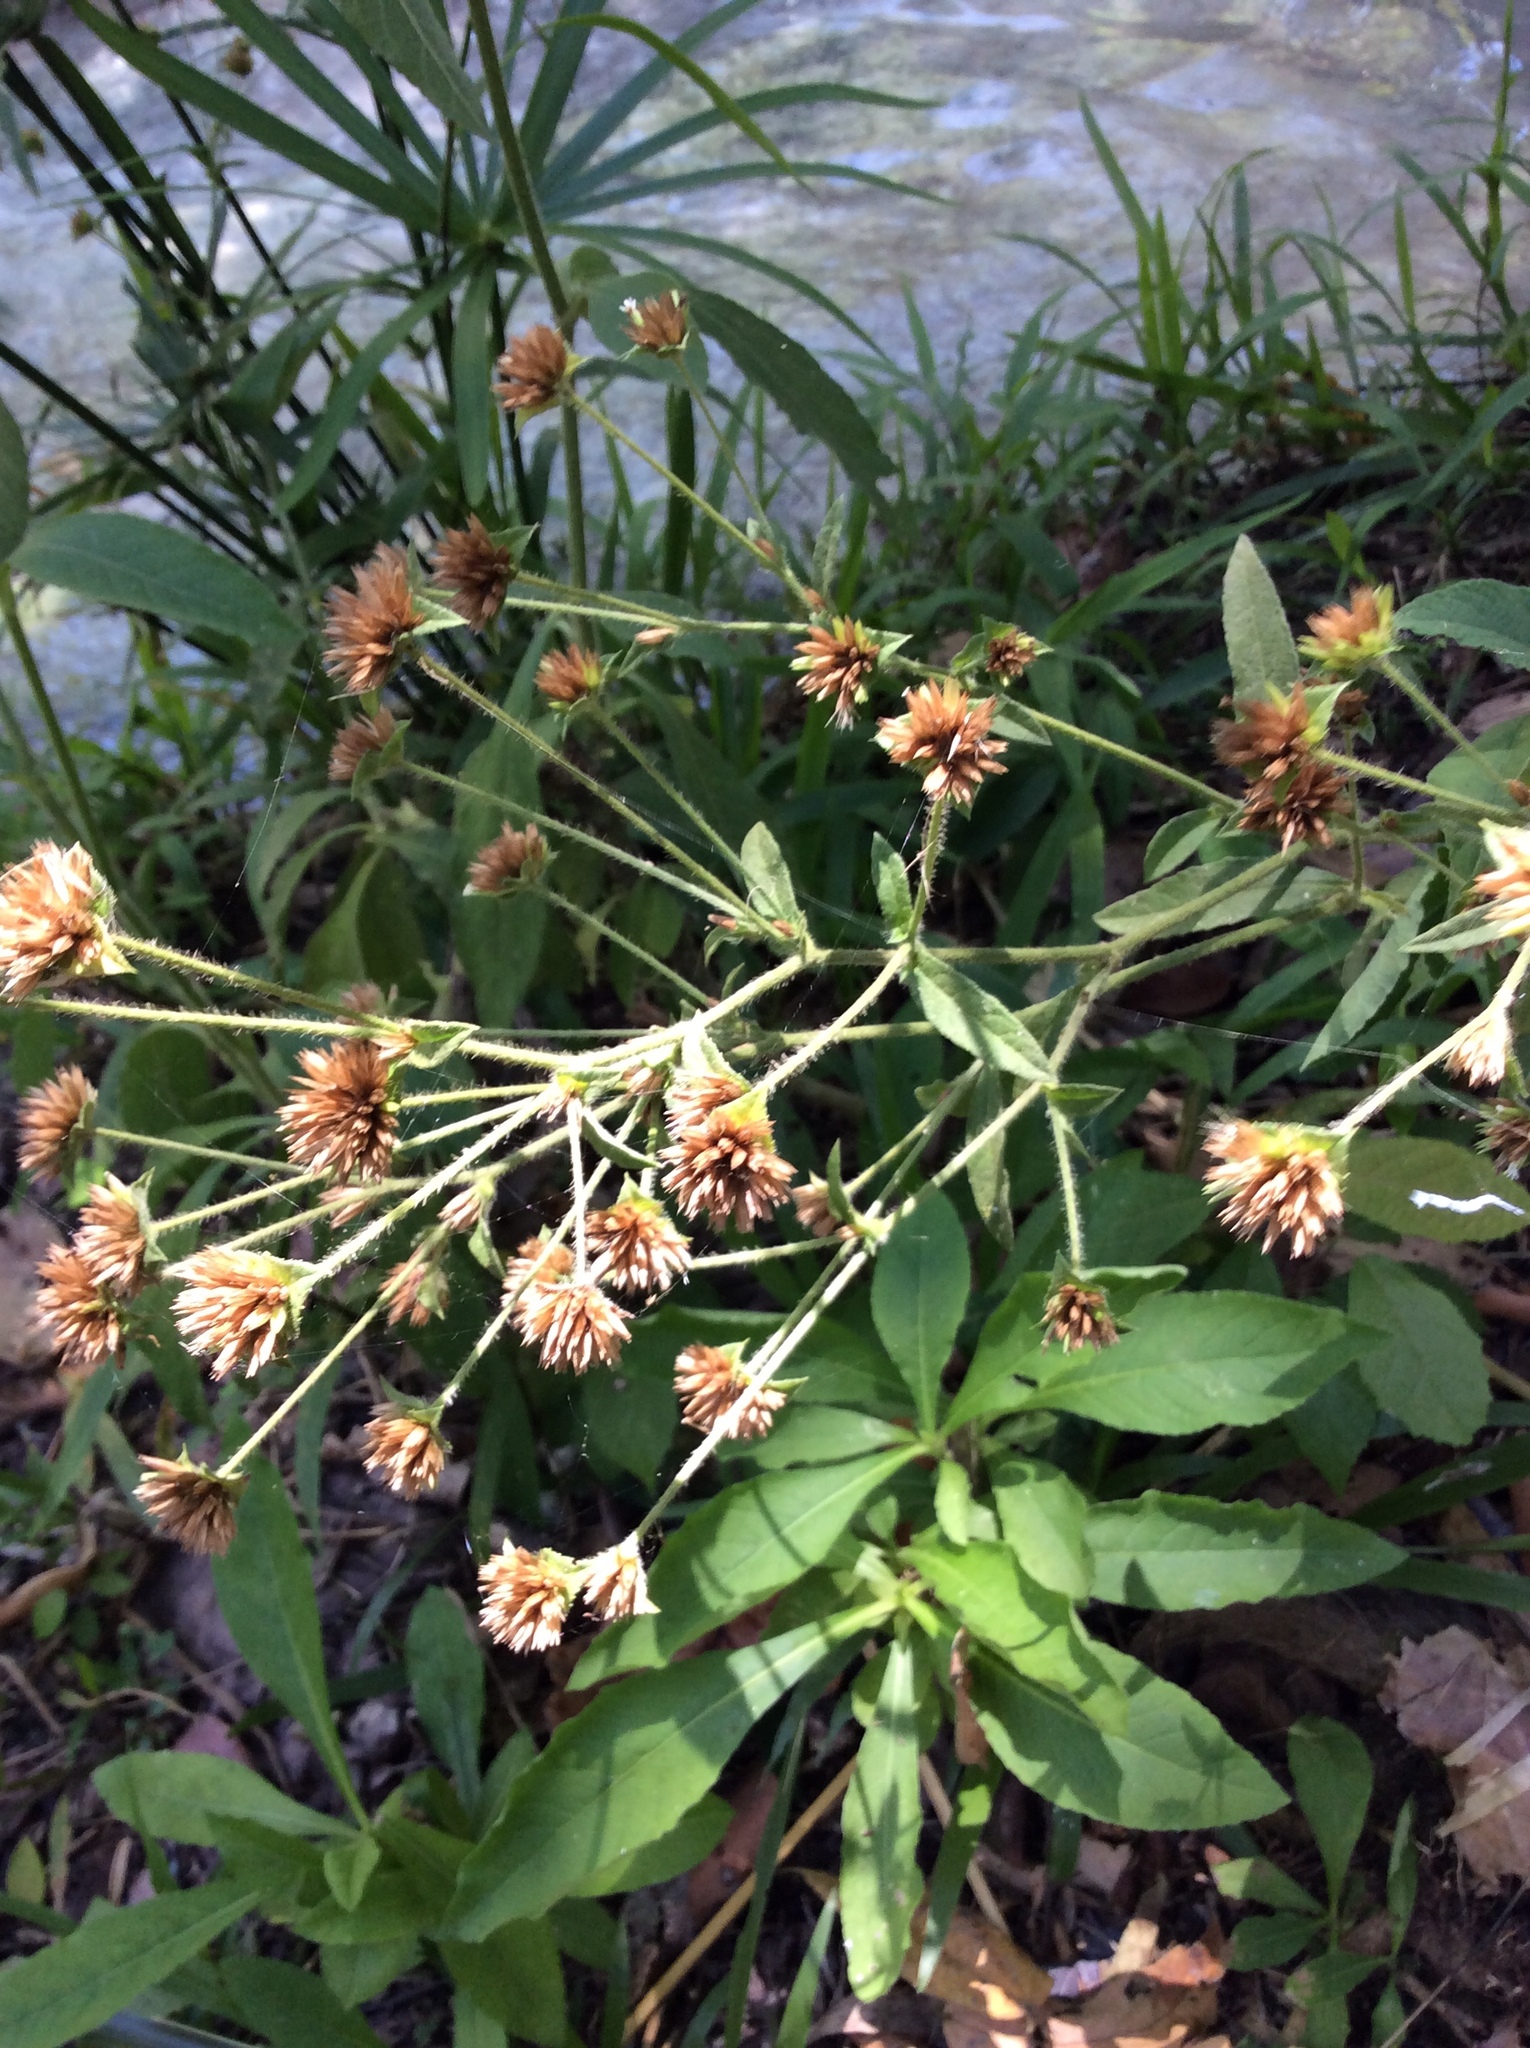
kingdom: Plantae
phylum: Tracheophyta
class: Magnoliopsida
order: Asterales
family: Asteraceae
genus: Elephantopus
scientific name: Elephantopus scaber
